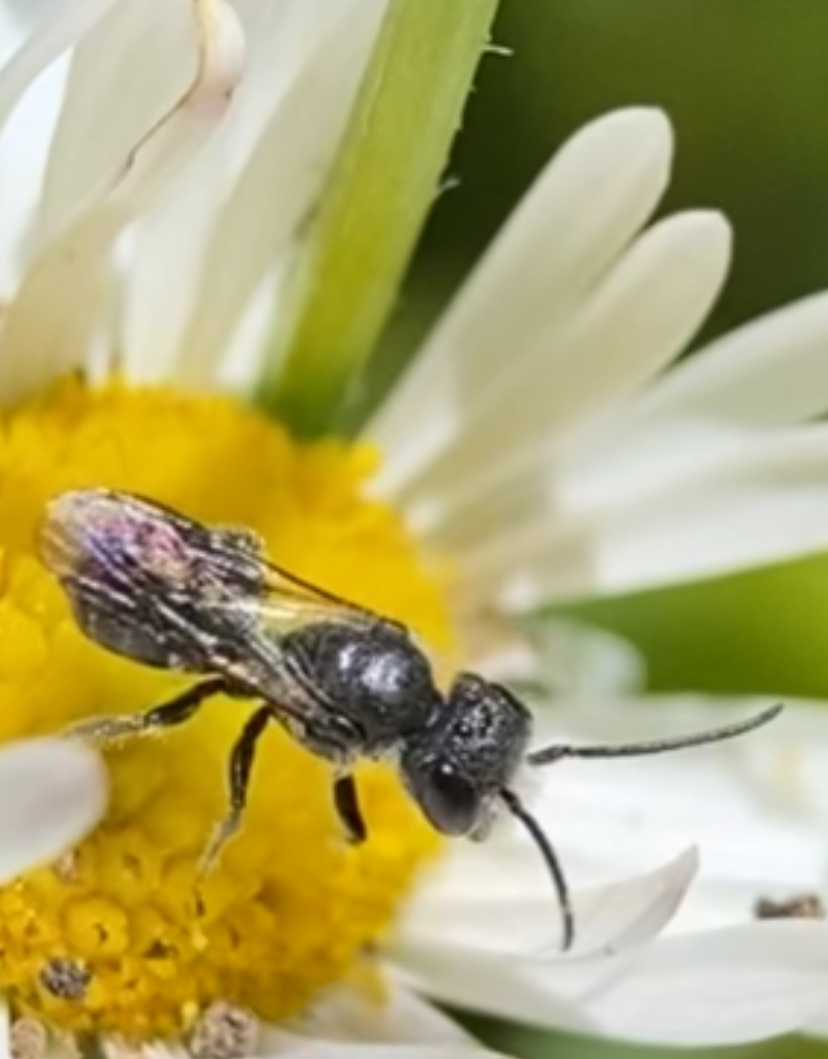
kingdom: Animalia
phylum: Arthropoda
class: Insecta
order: Hymenoptera
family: Megachilidae
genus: Protosmia
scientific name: Protosmia rubifloris
